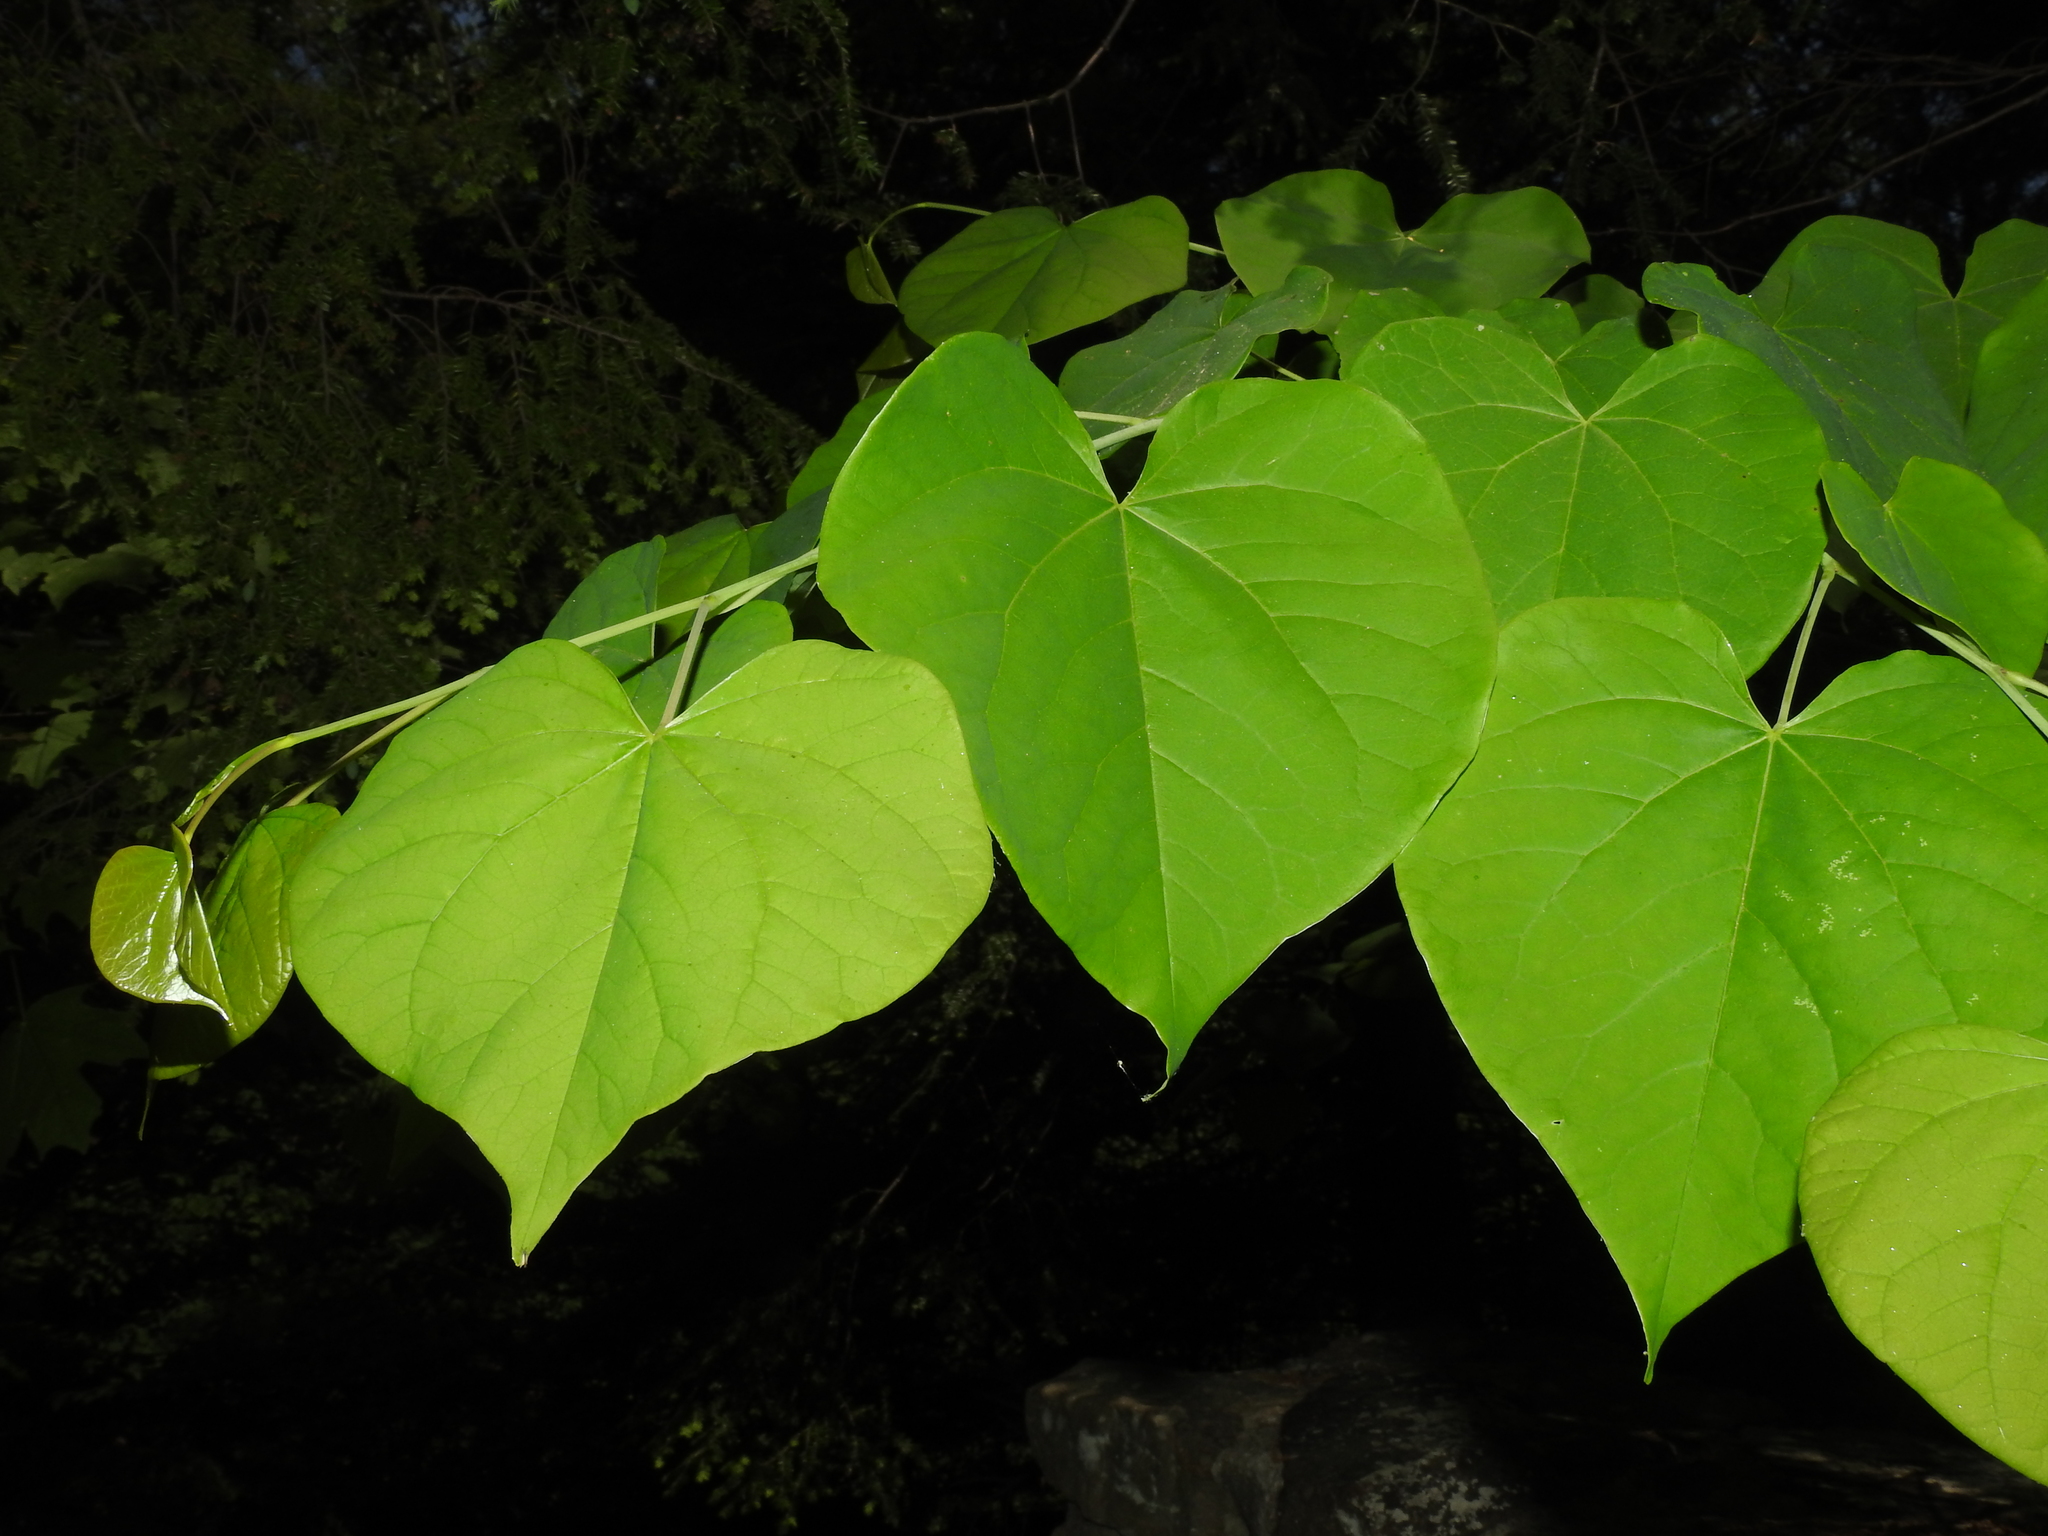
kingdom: Plantae
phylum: Tracheophyta
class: Magnoliopsida
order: Fabales
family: Fabaceae
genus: Cercis
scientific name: Cercis canadensis
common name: Eastern redbud
